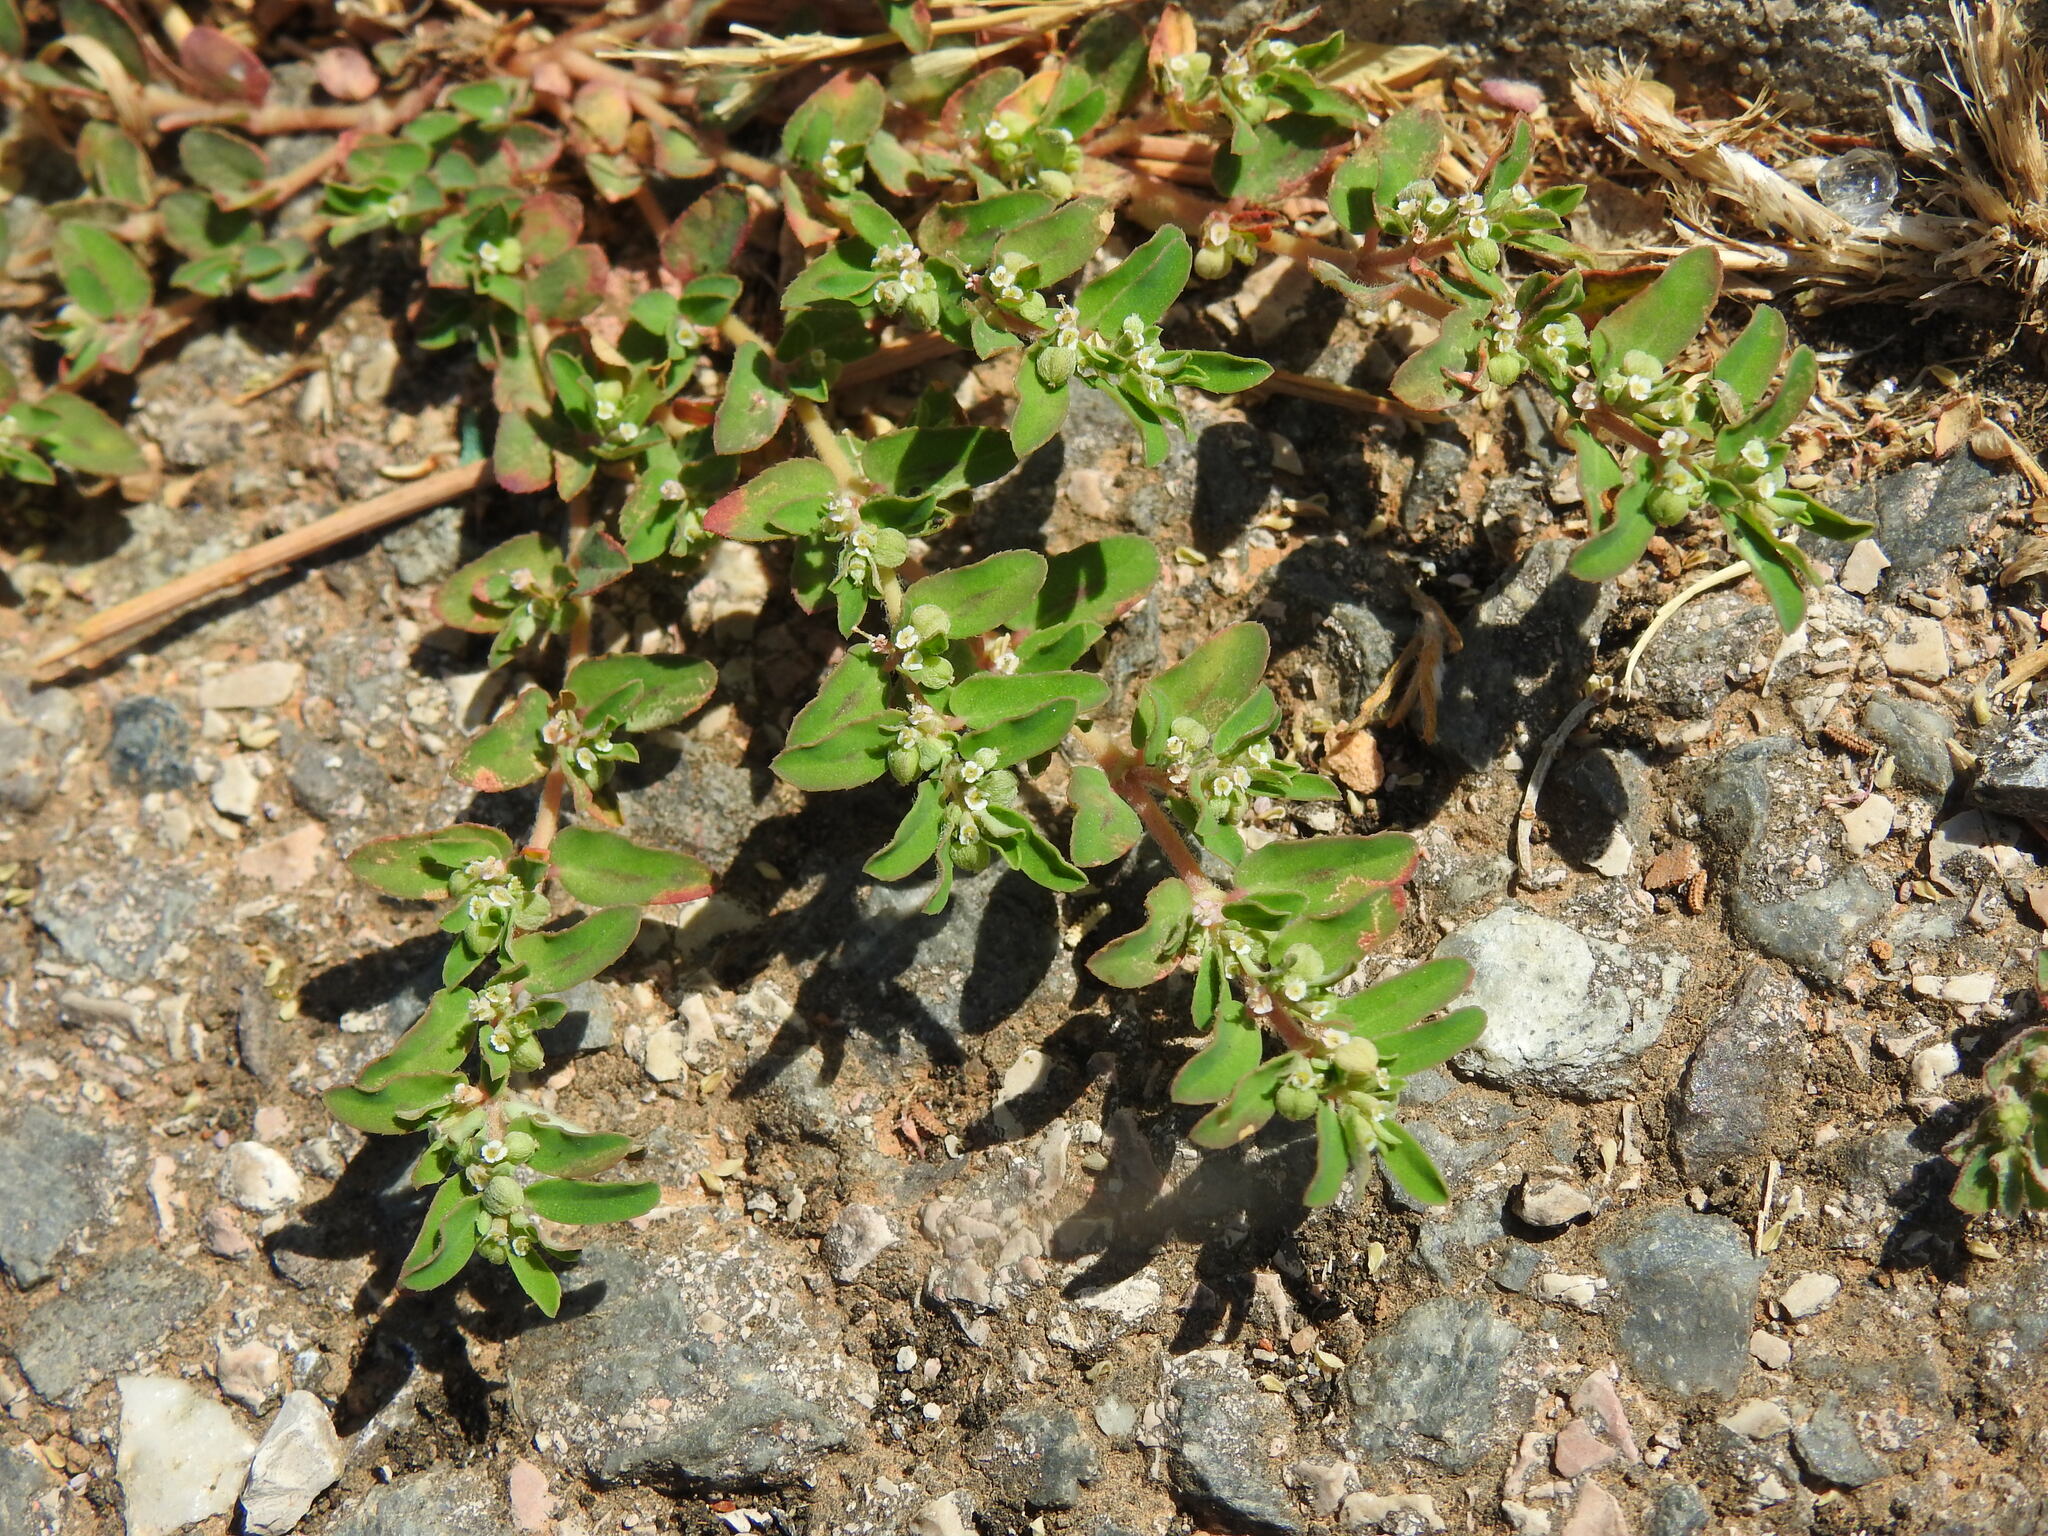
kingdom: Plantae
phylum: Tracheophyta
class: Magnoliopsida
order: Malpighiales
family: Euphorbiaceae
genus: Euphorbia
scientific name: Euphorbia maculata
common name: Spotted spurge
